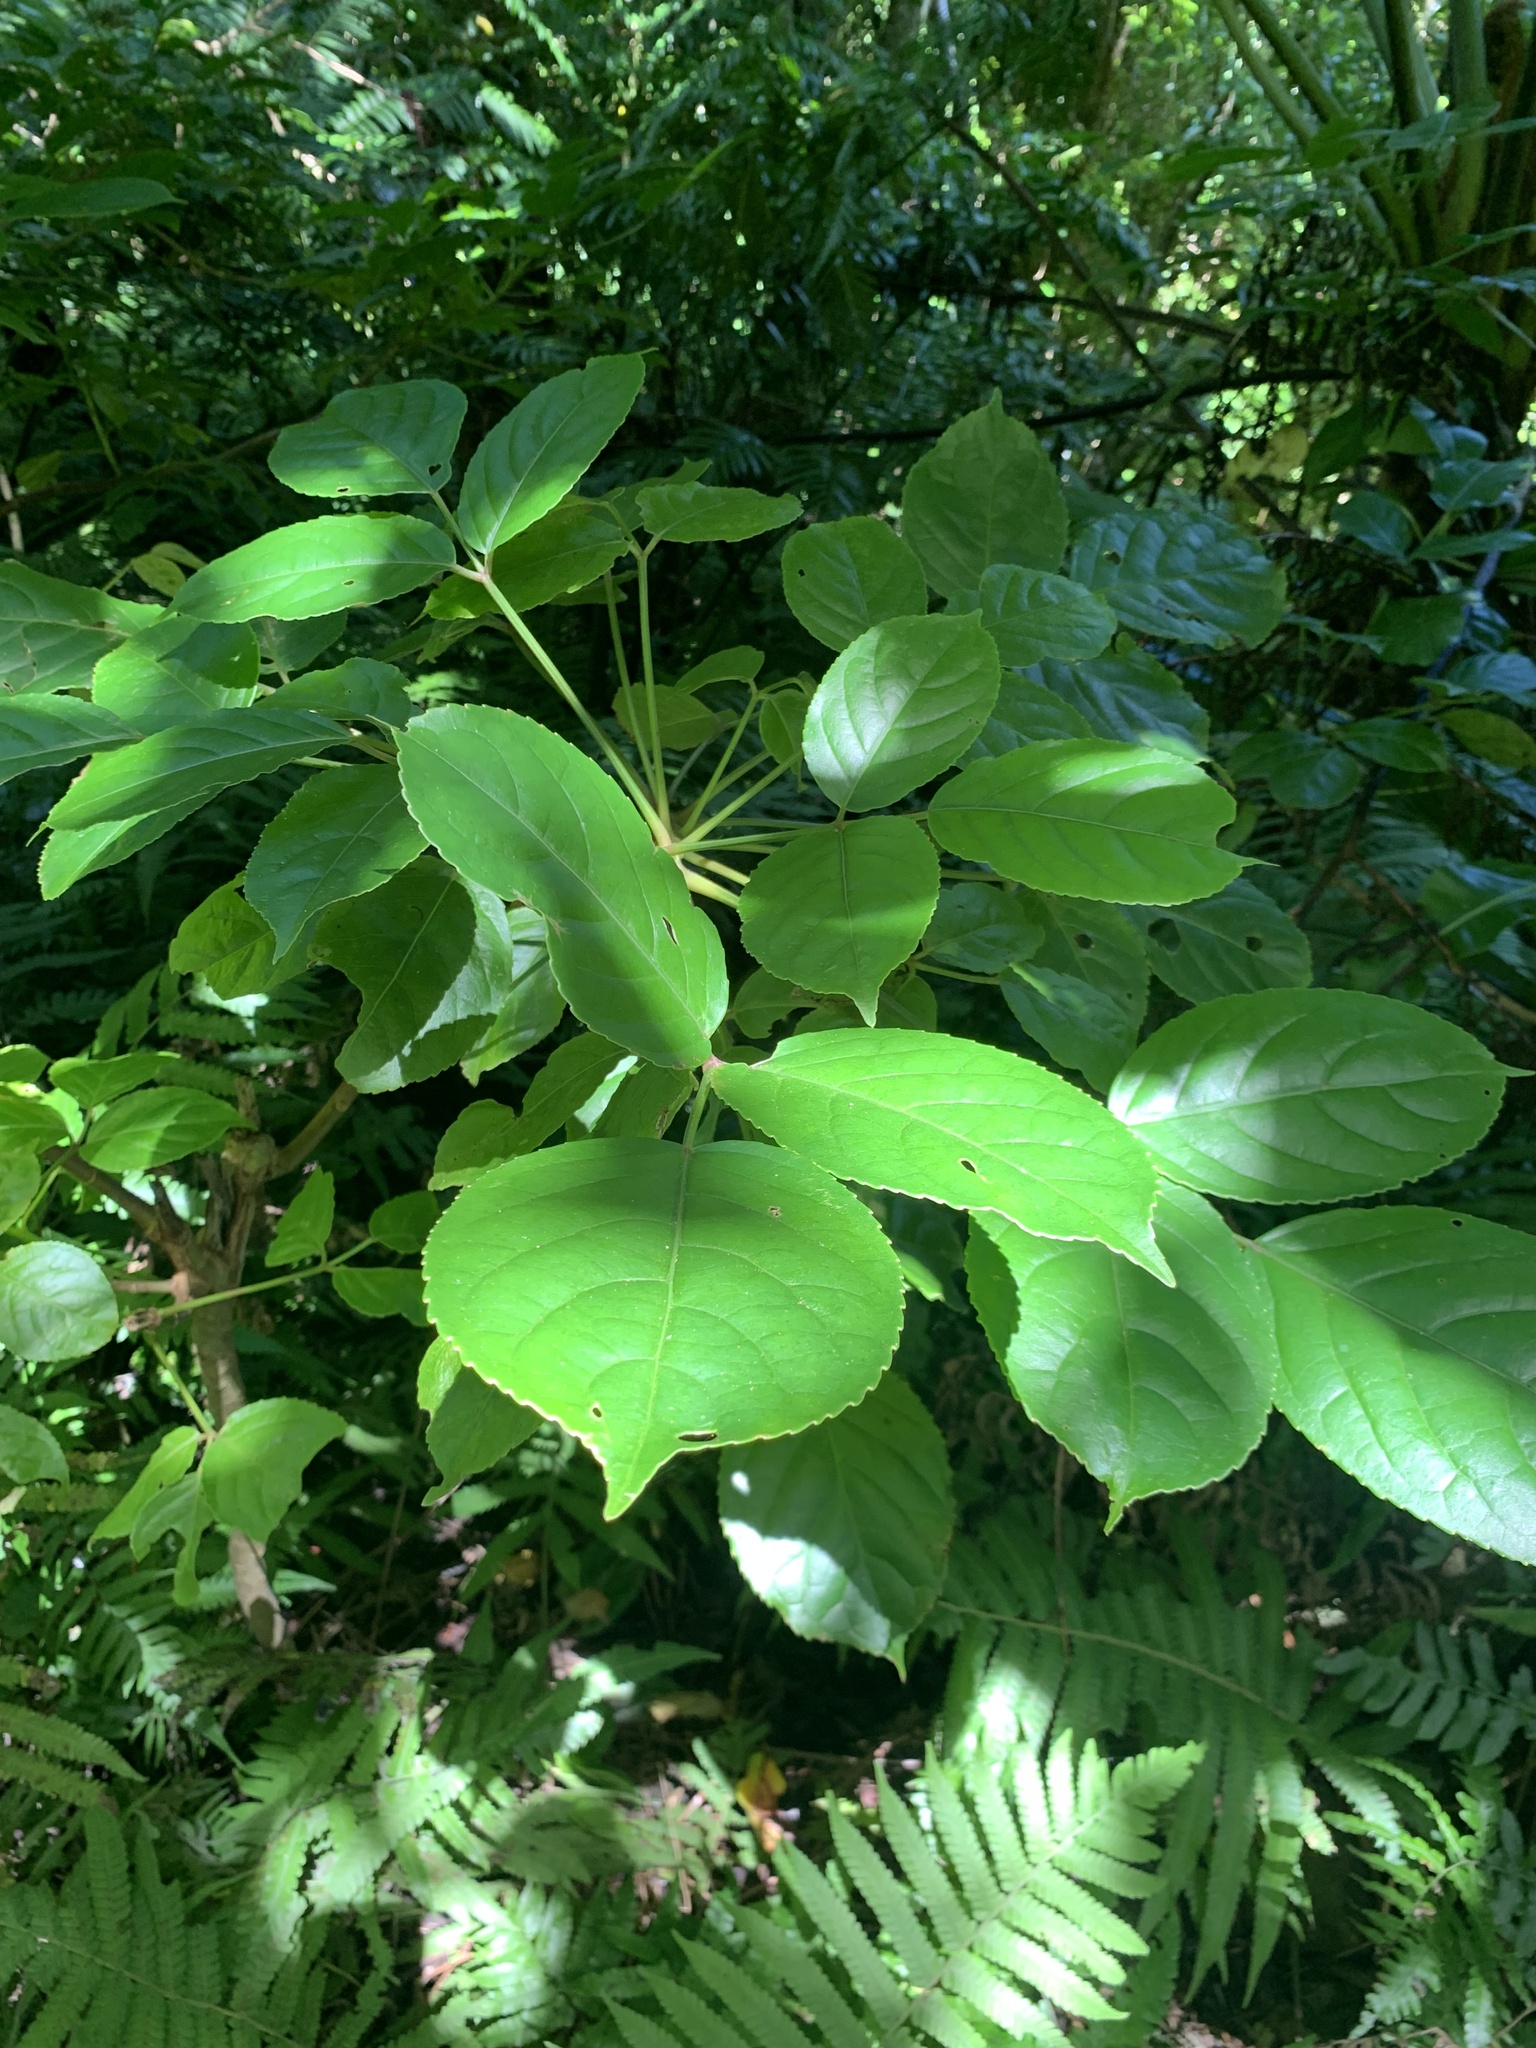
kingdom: Plantae
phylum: Tracheophyta
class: Magnoliopsida
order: Malpighiales
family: Phyllanthaceae
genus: Bischofia
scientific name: Bischofia javanica
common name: Javanese bishopwood
